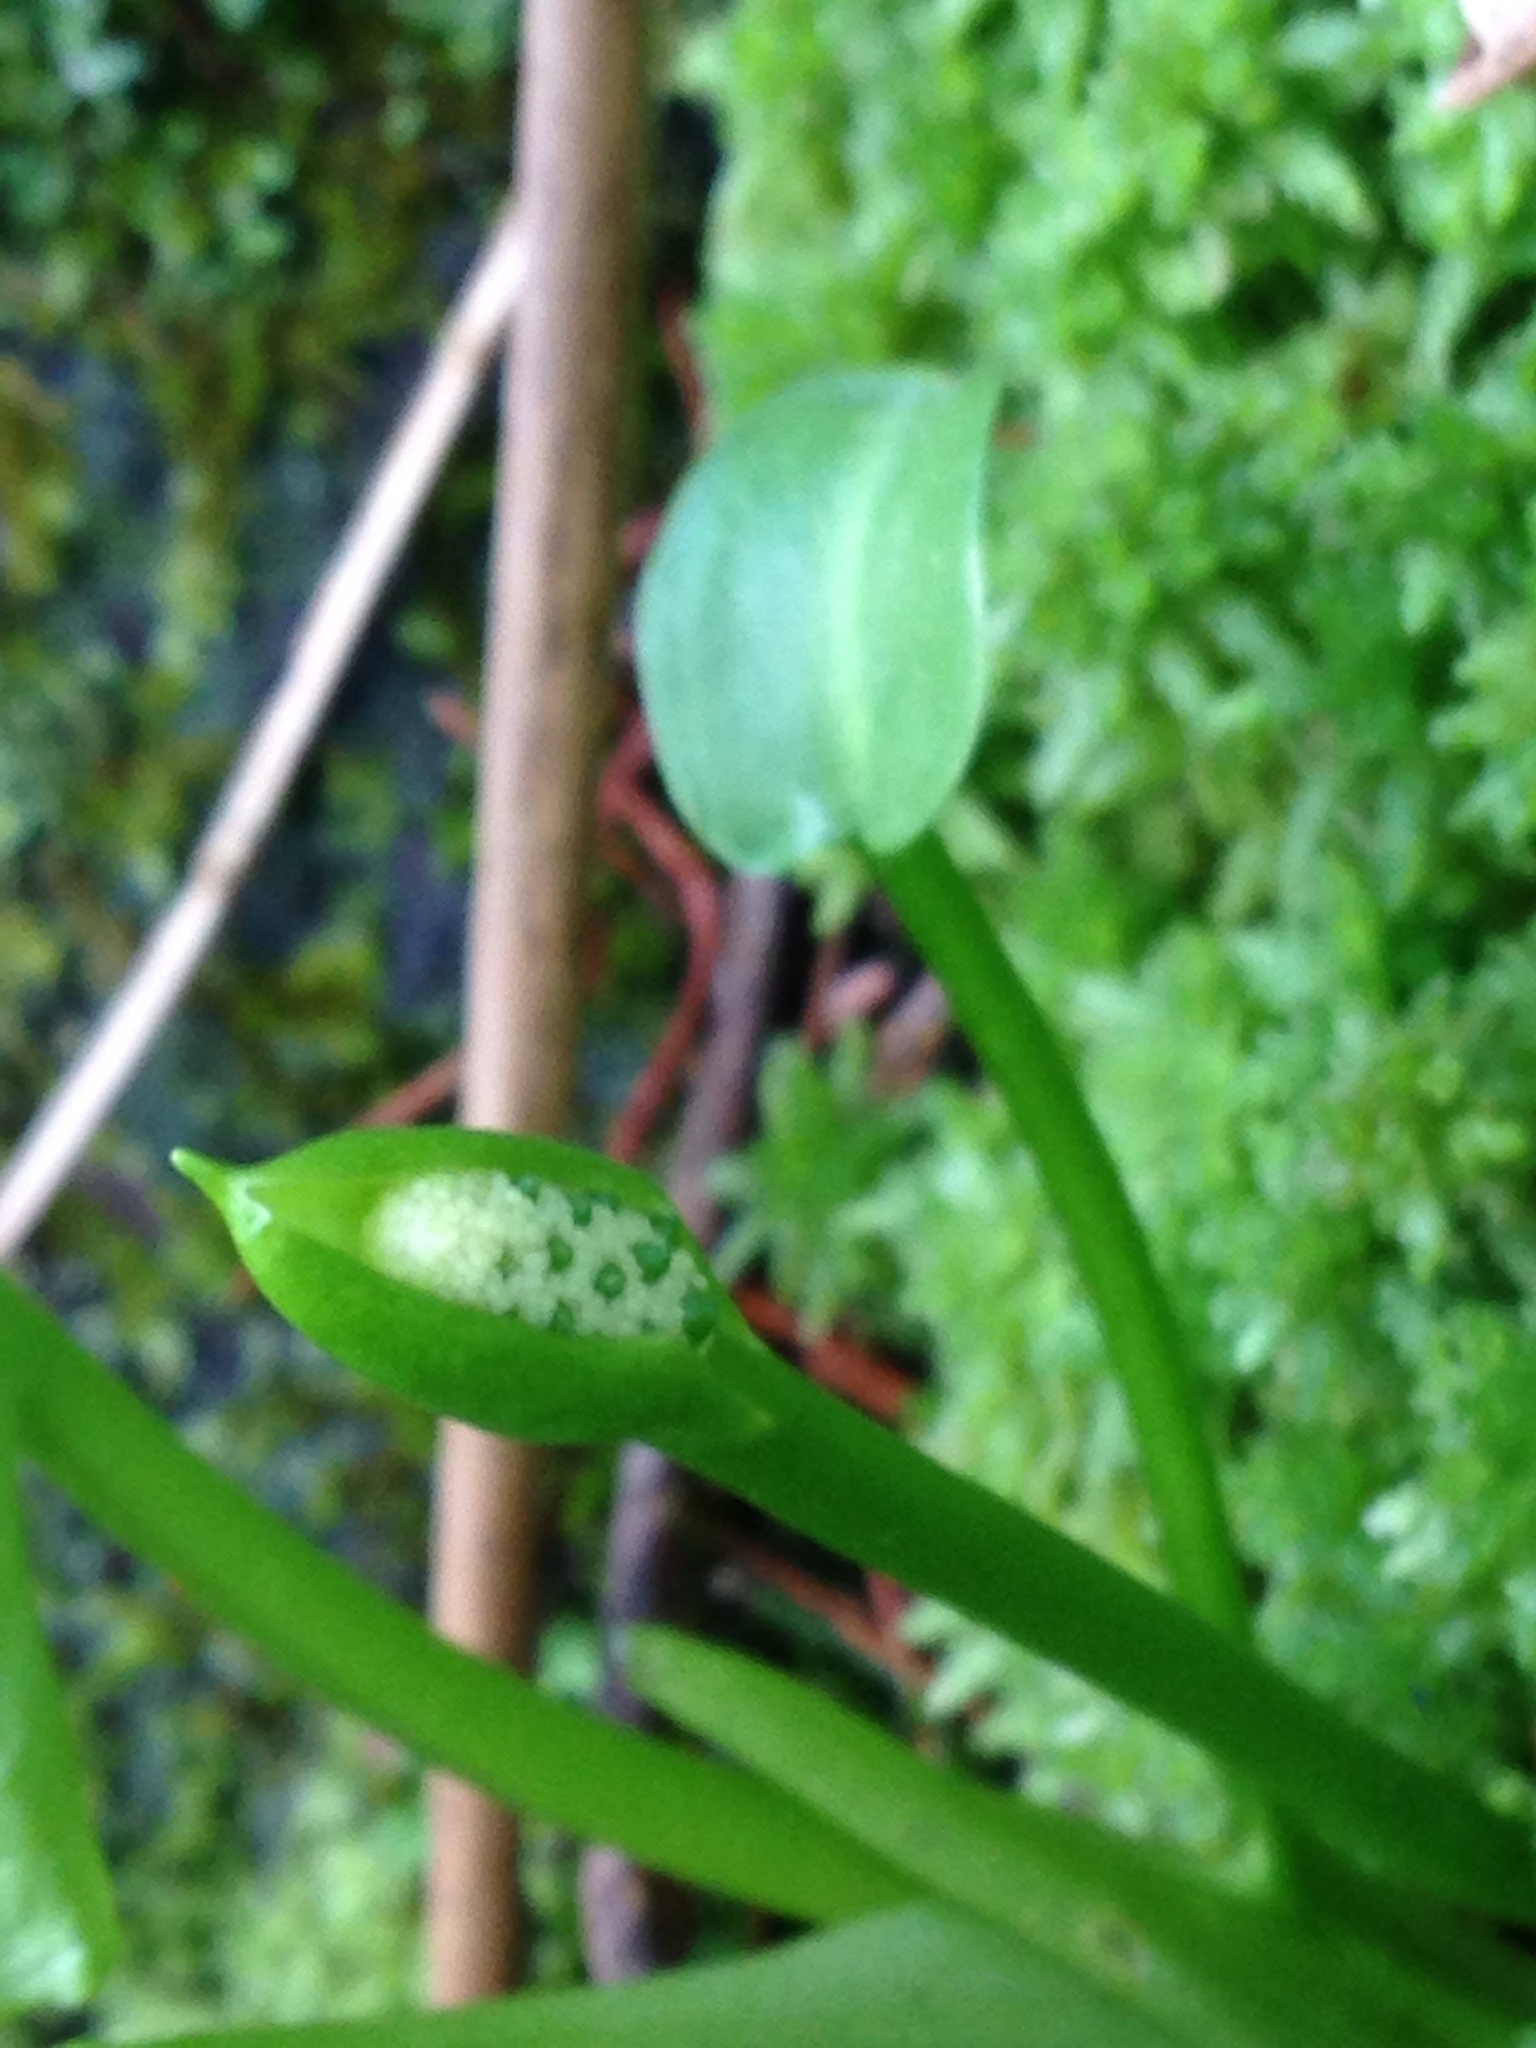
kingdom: Plantae
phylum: Tracheophyta
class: Liliopsida
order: Alismatales
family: Araceae
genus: Calla
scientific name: Calla palustris
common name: Bog arum
